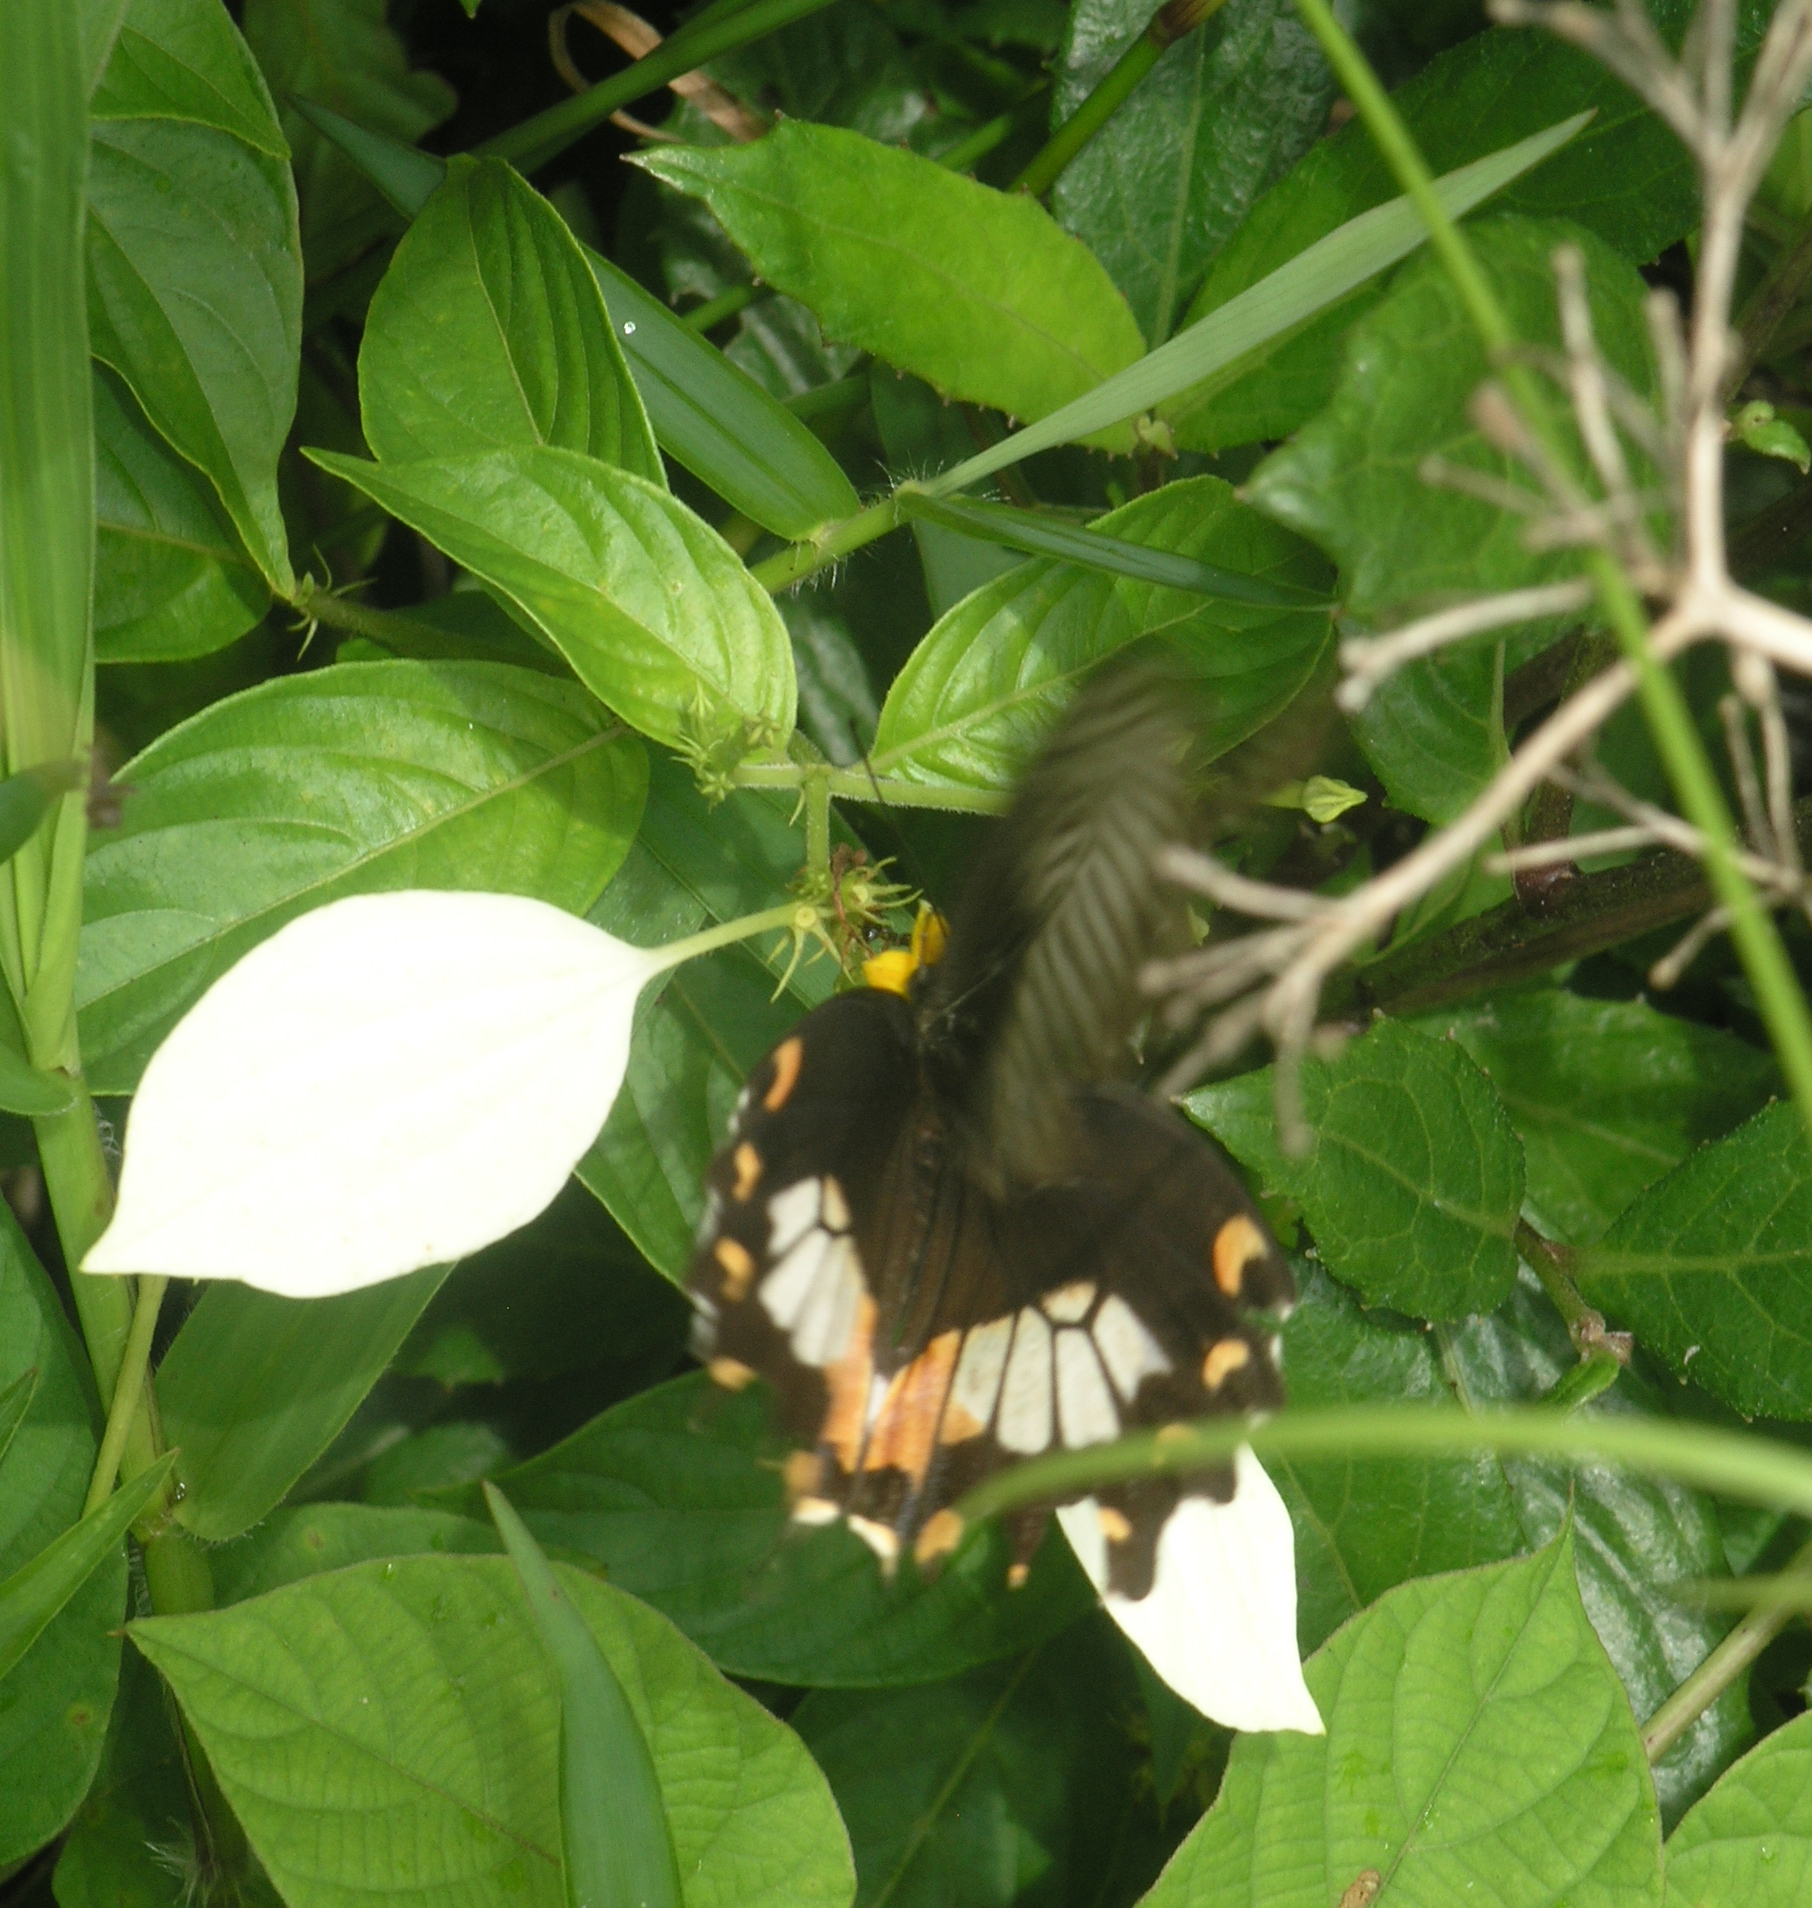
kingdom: Animalia
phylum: Arthropoda
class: Insecta
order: Lepidoptera
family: Papilionidae
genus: Papilio
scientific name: Papilio polytes
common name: Common mormon
